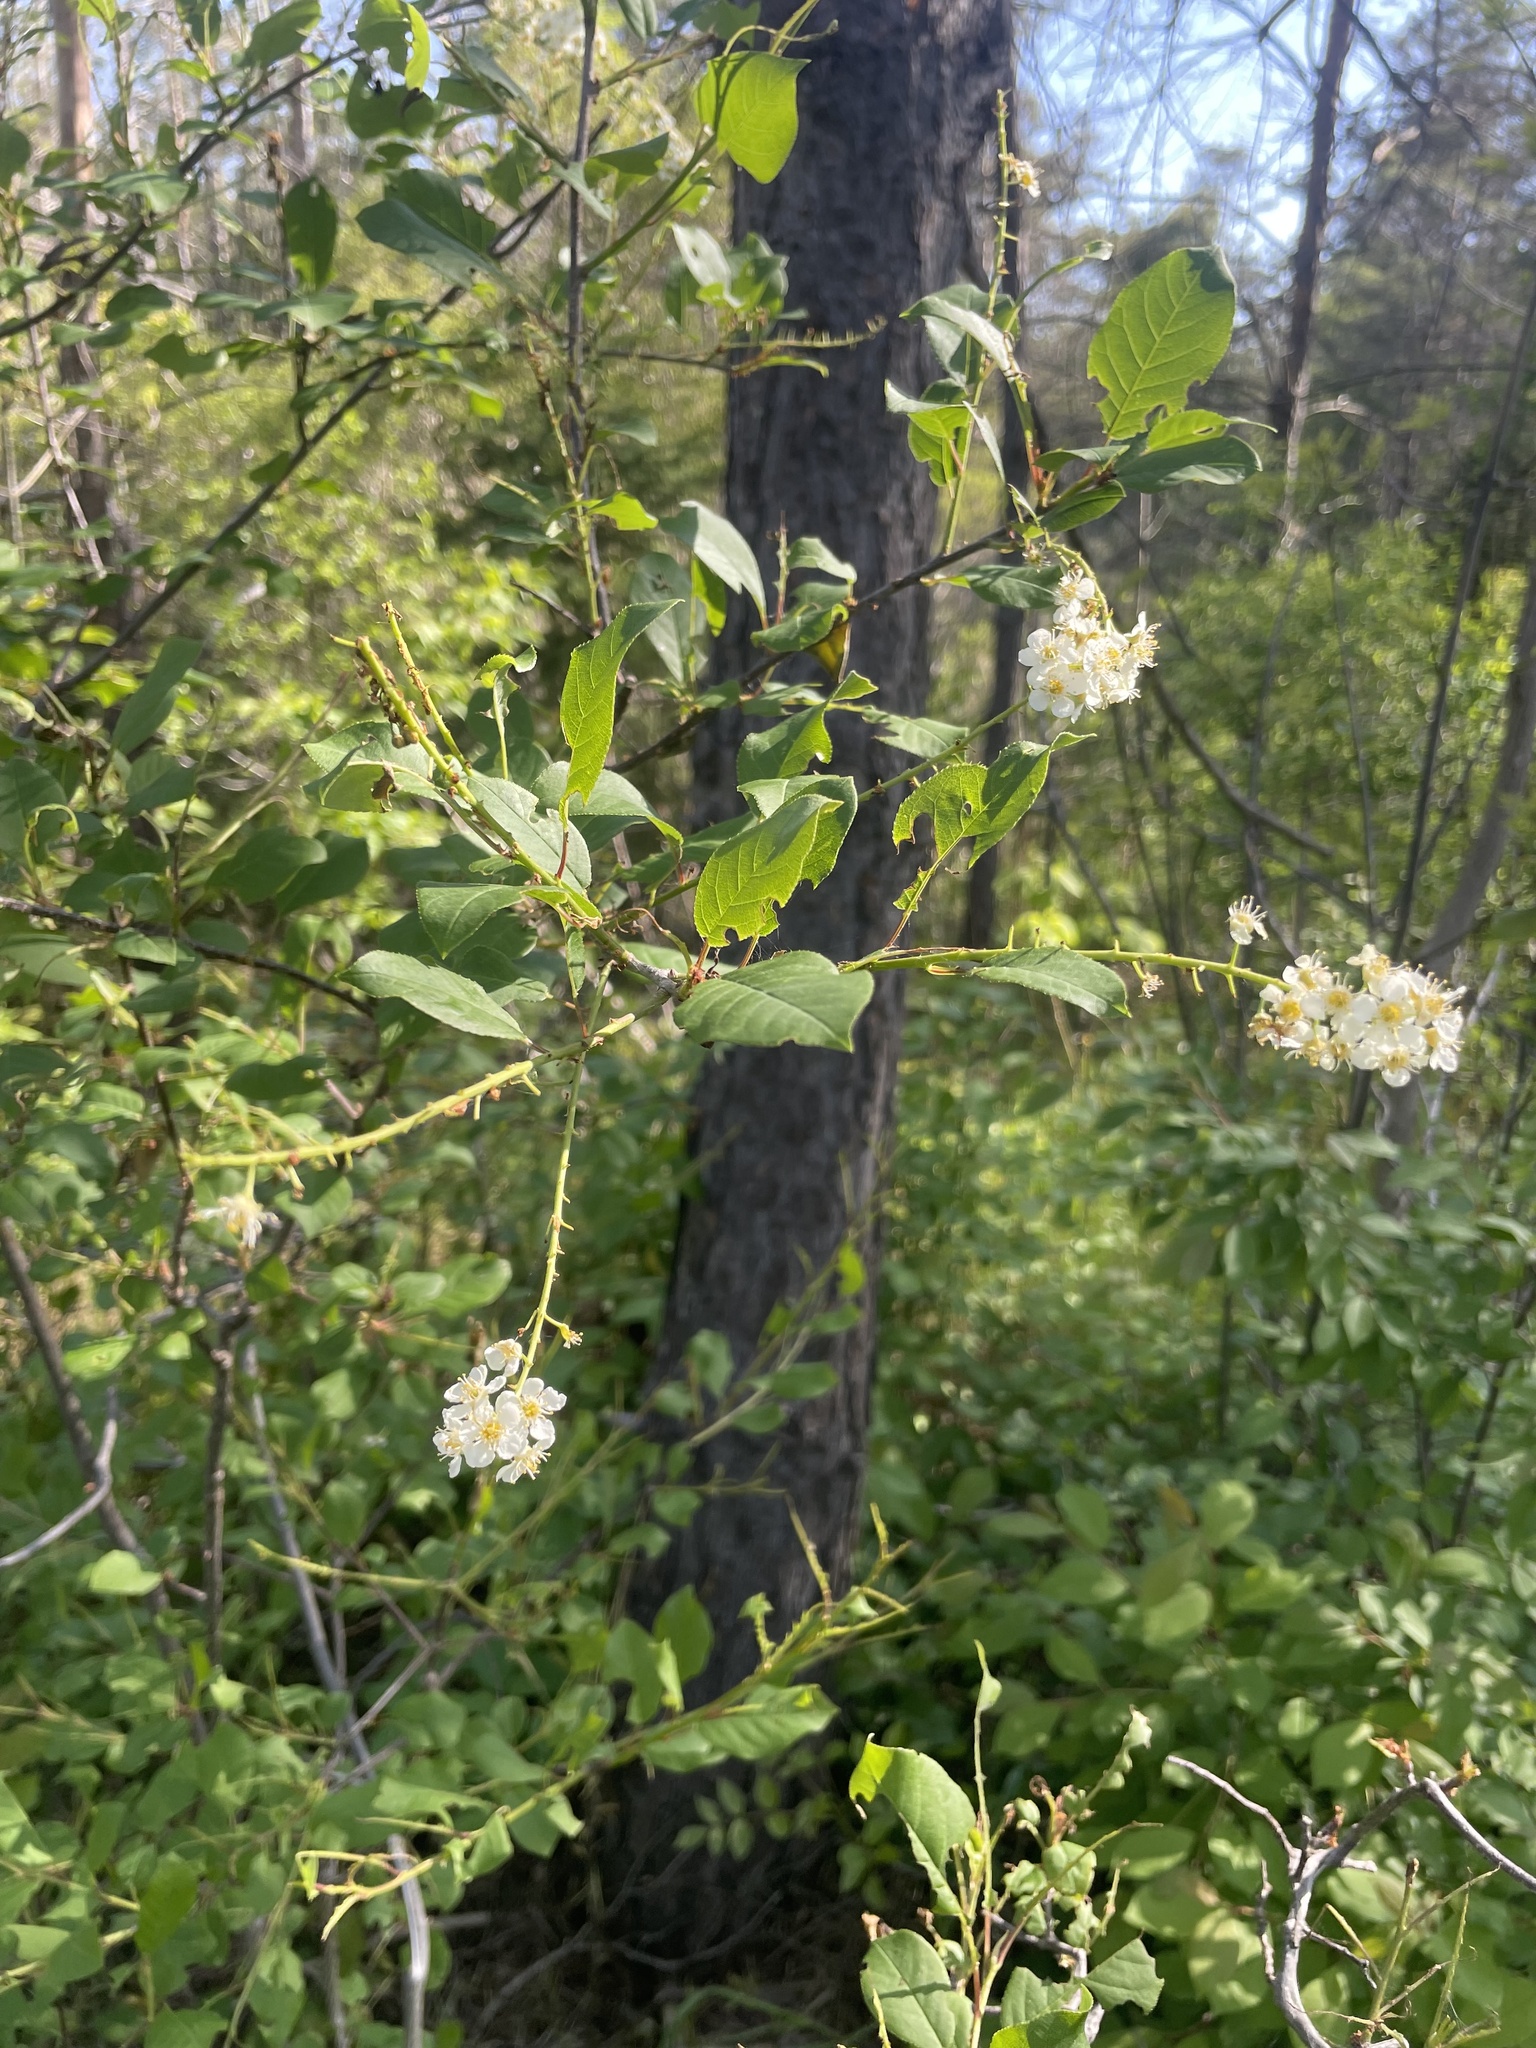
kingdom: Animalia
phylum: Arthropoda
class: Insecta
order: Lepidoptera
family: Lasiocampidae
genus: Malacosoma
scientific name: Malacosoma americana
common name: Eastern tent caterpillar moth
